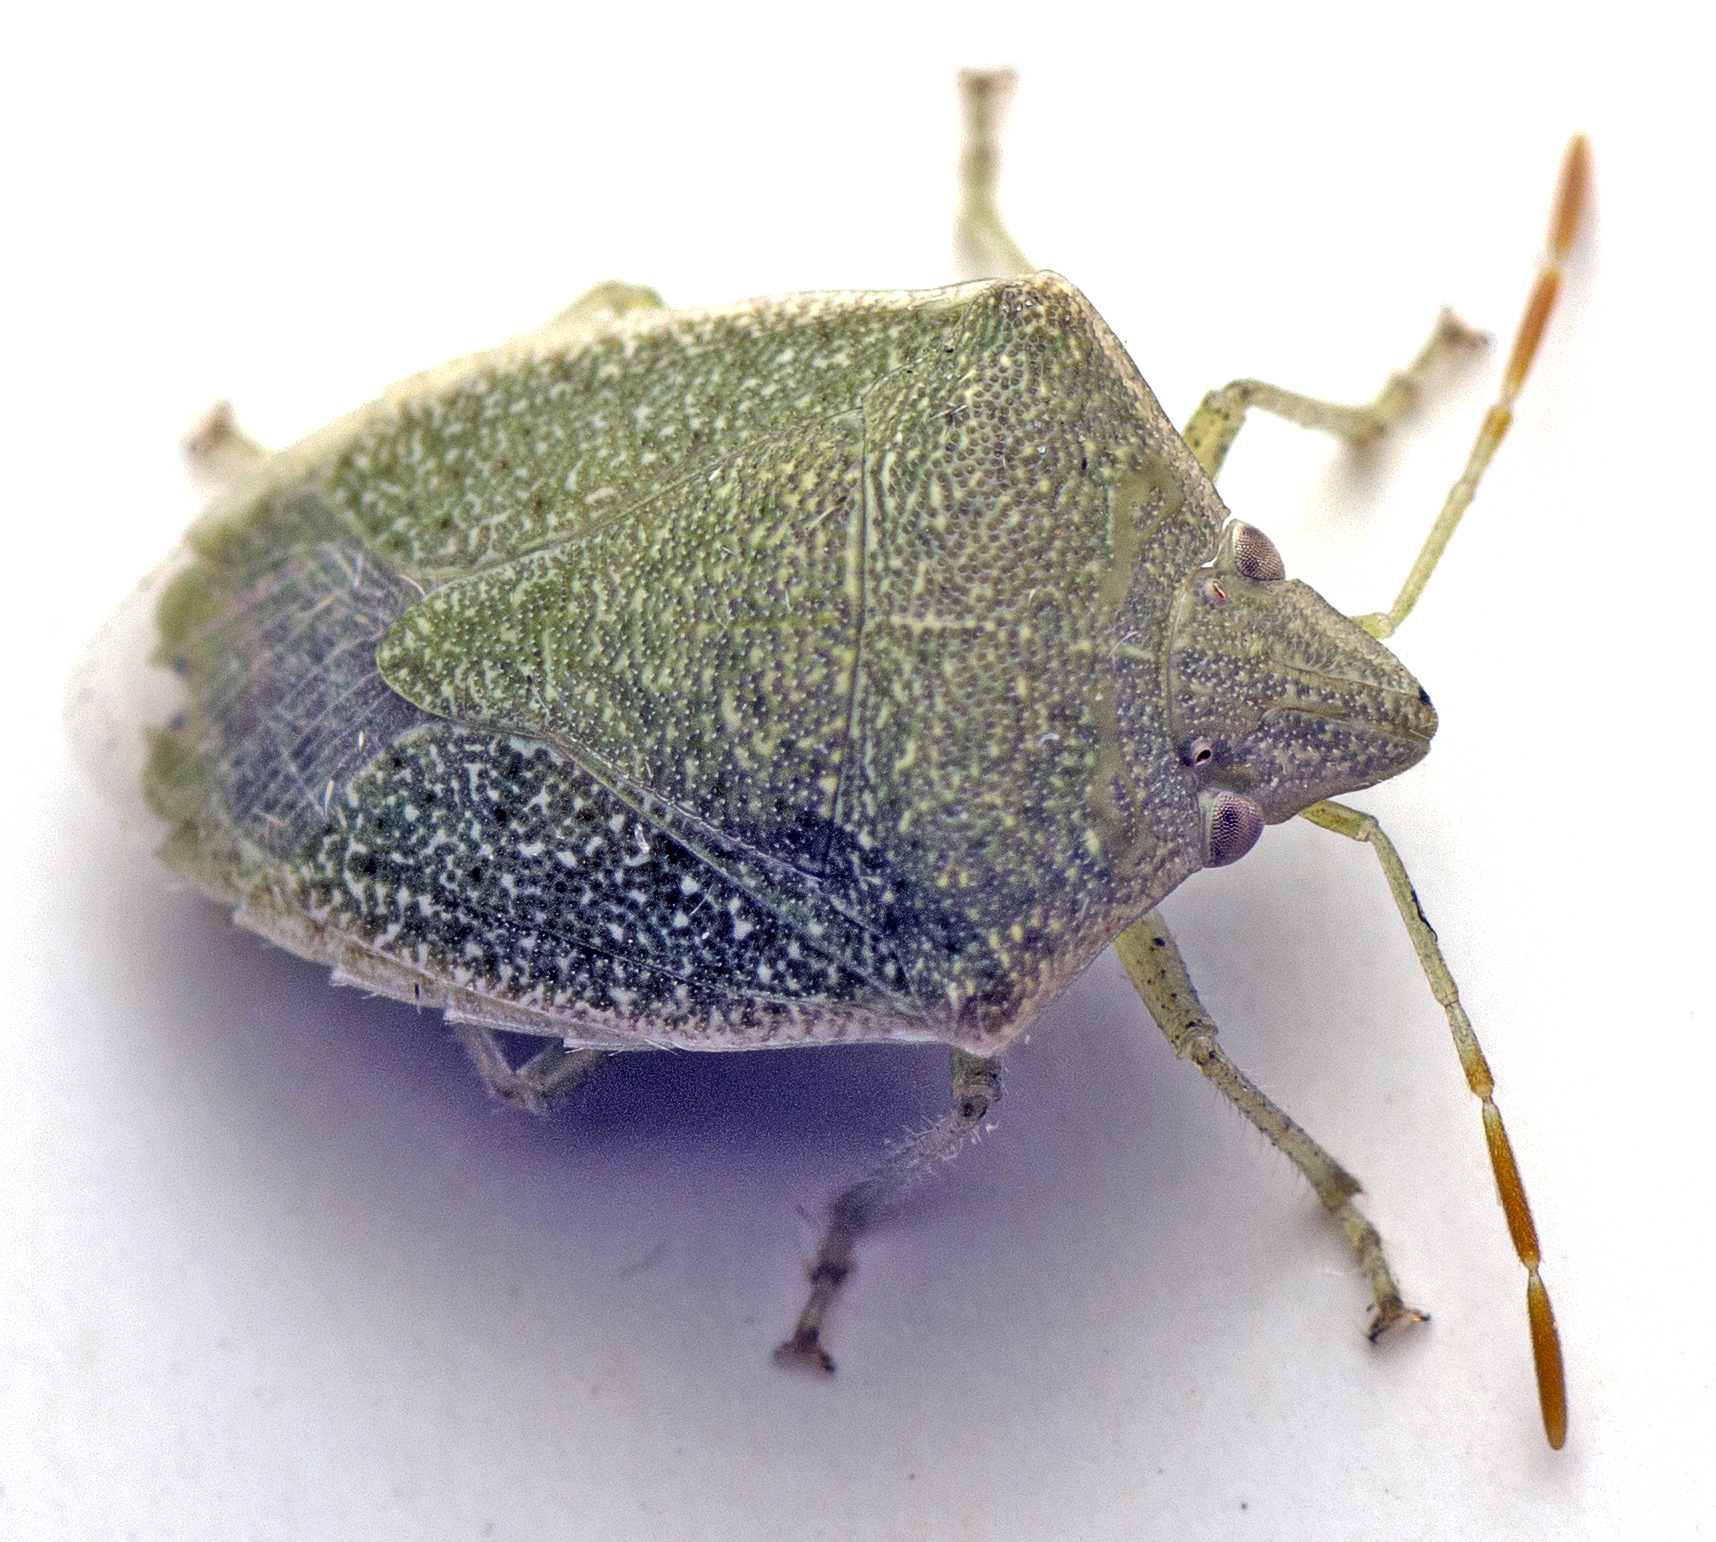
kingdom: Animalia
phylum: Arthropoda
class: Insecta
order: Hemiptera
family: Pentatomidae
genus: Cuspicona
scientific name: Cuspicona
